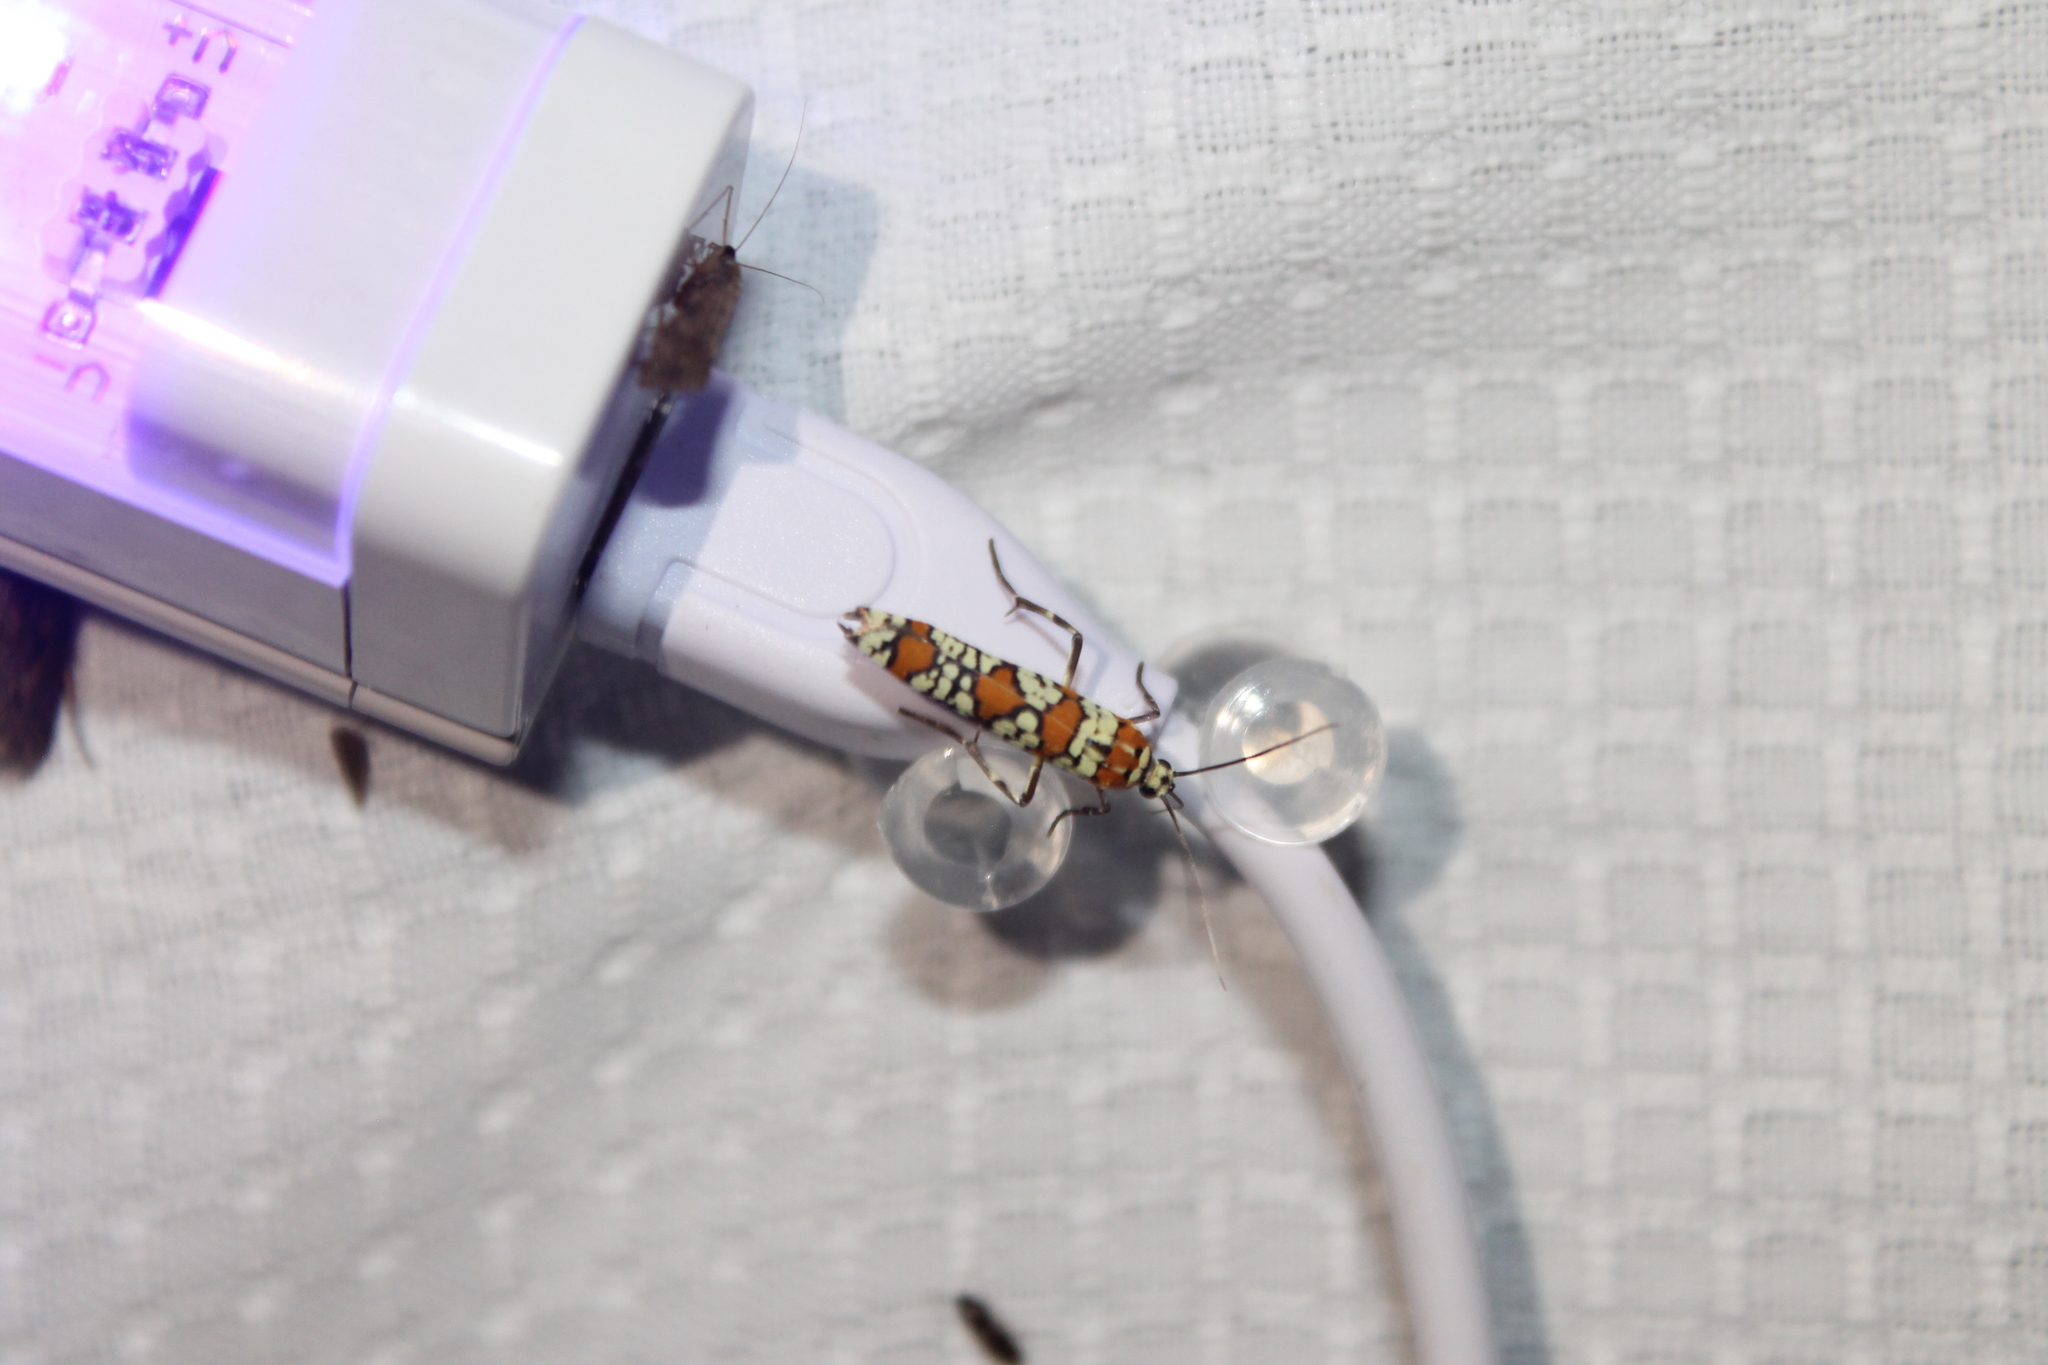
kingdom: Animalia
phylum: Arthropoda
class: Insecta
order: Lepidoptera
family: Attevidae
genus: Atteva
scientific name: Atteva punctella
